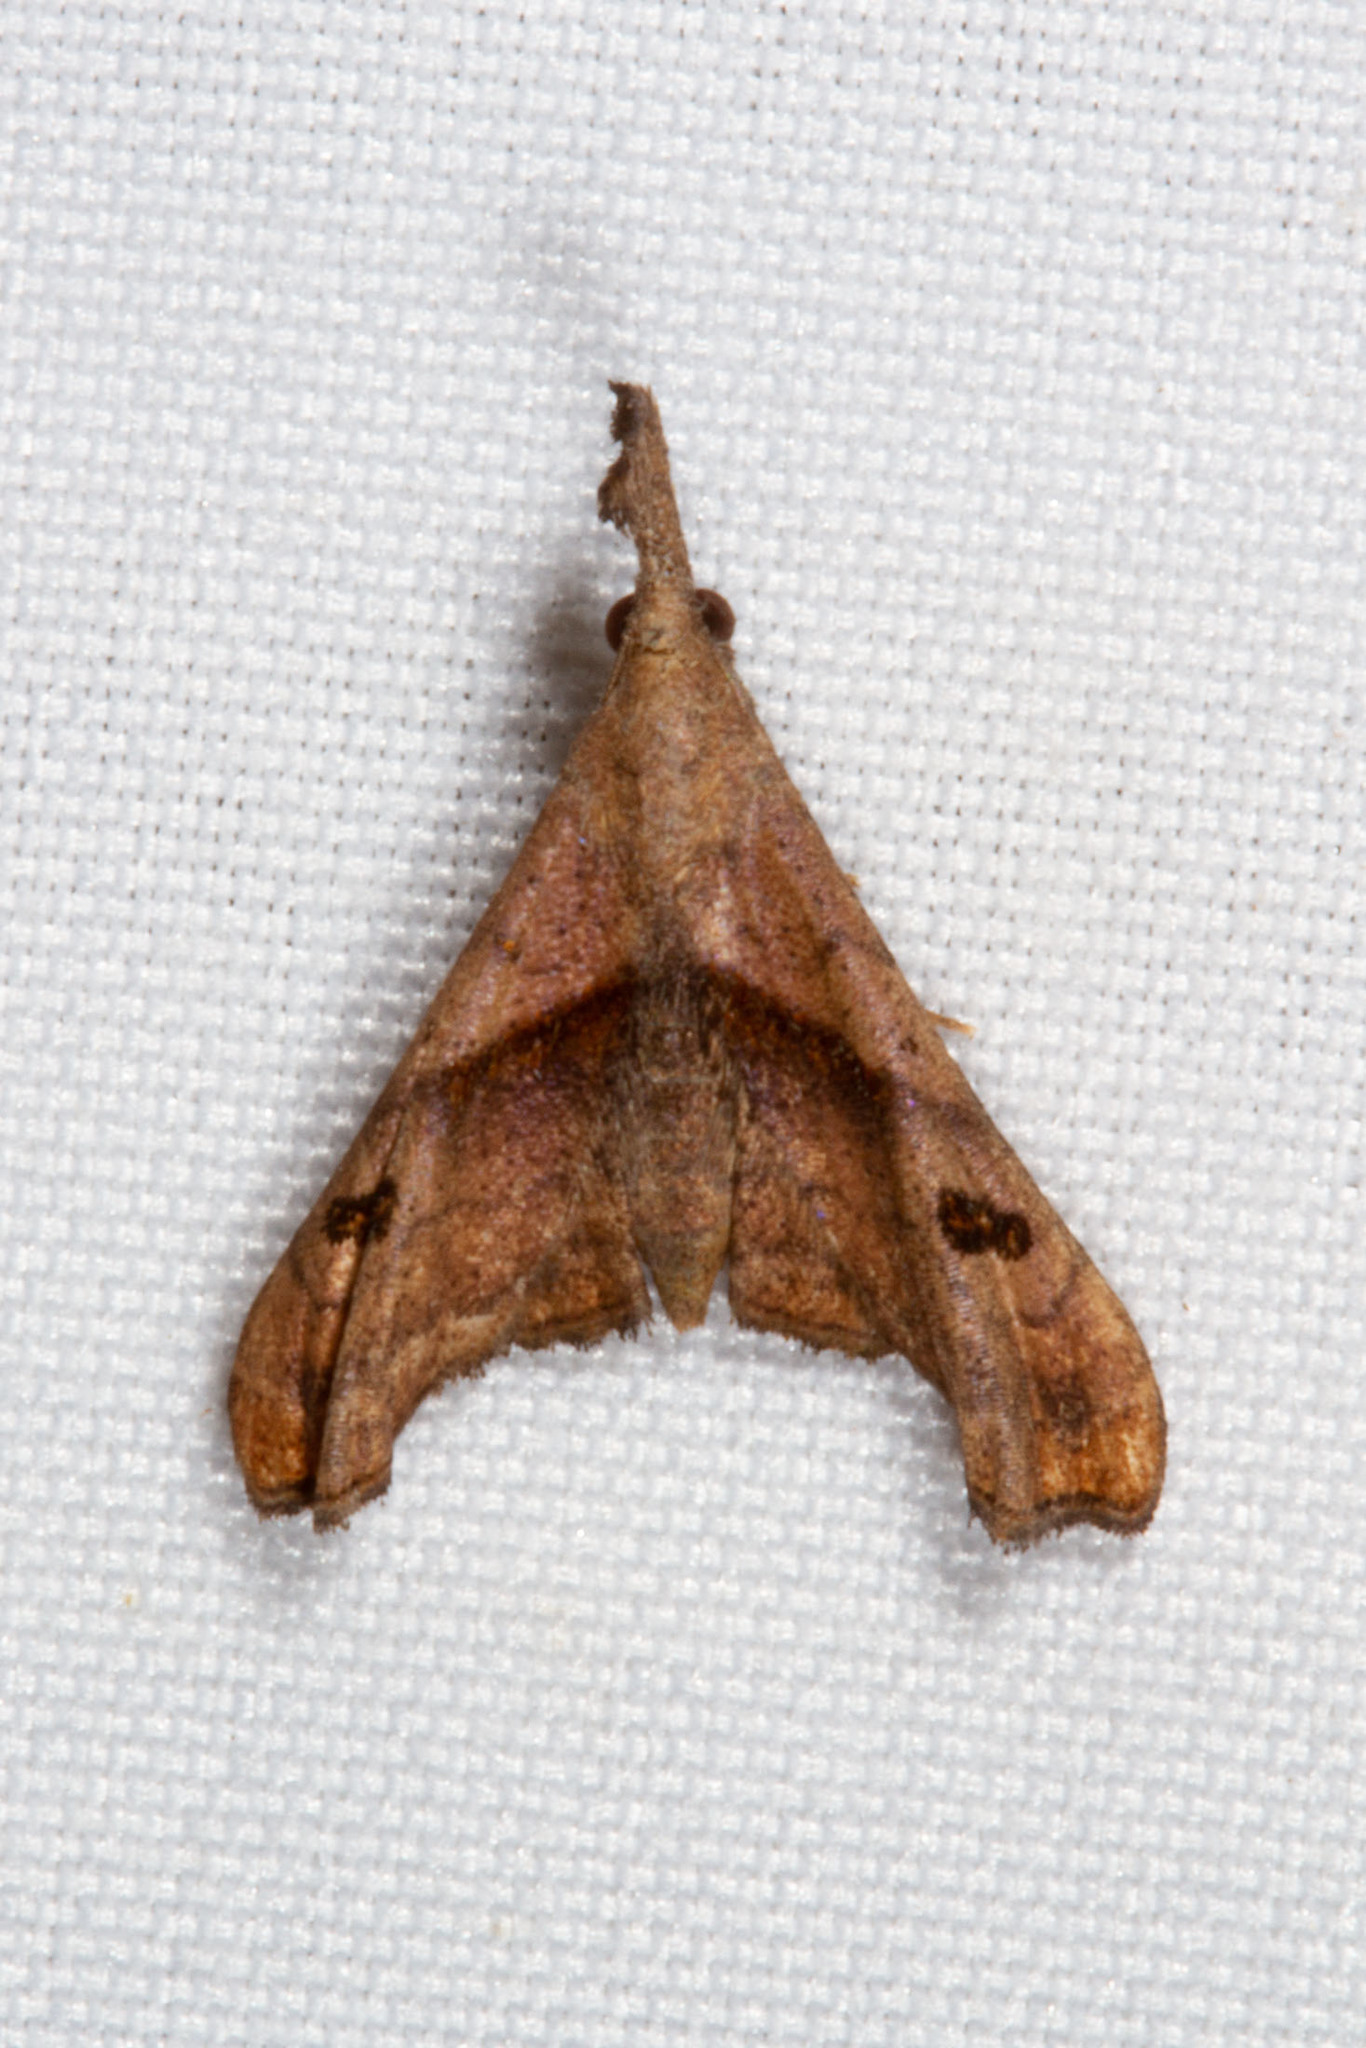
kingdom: Animalia
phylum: Arthropoda
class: Insecta
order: Lepidoptera
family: Erebidae
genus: Palthis
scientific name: Palthis angulalis
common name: Dark-spotted palthis moth
